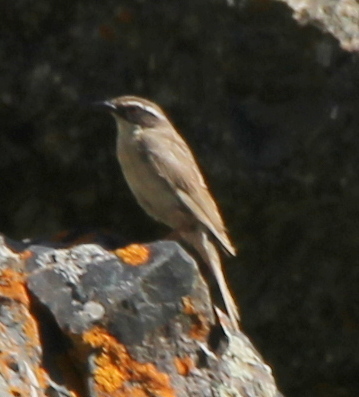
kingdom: Animalia
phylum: Chordata
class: Aves
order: Passeriformes
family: Prunellidae
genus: Prunella
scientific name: Prunella fulvescens
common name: Brown accentor
